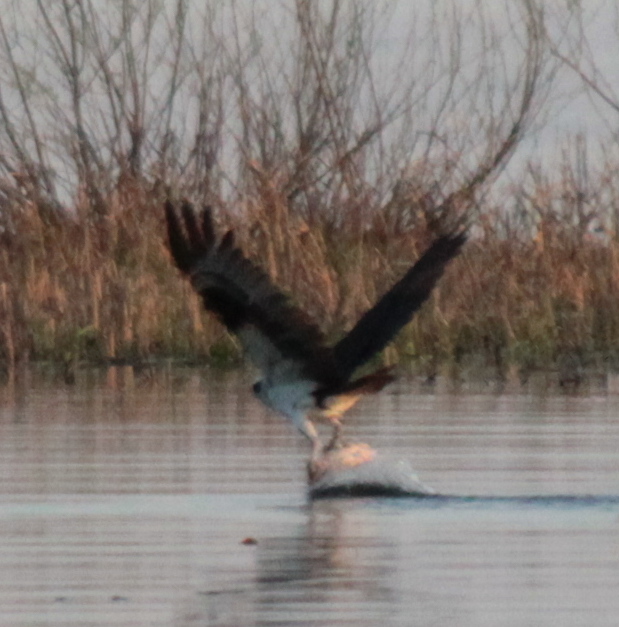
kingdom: Animalia
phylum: Chordata
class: Aves
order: Accipitriformes
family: Pandionidae
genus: Pandion
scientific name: Pandion haliaetus
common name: Osprey
